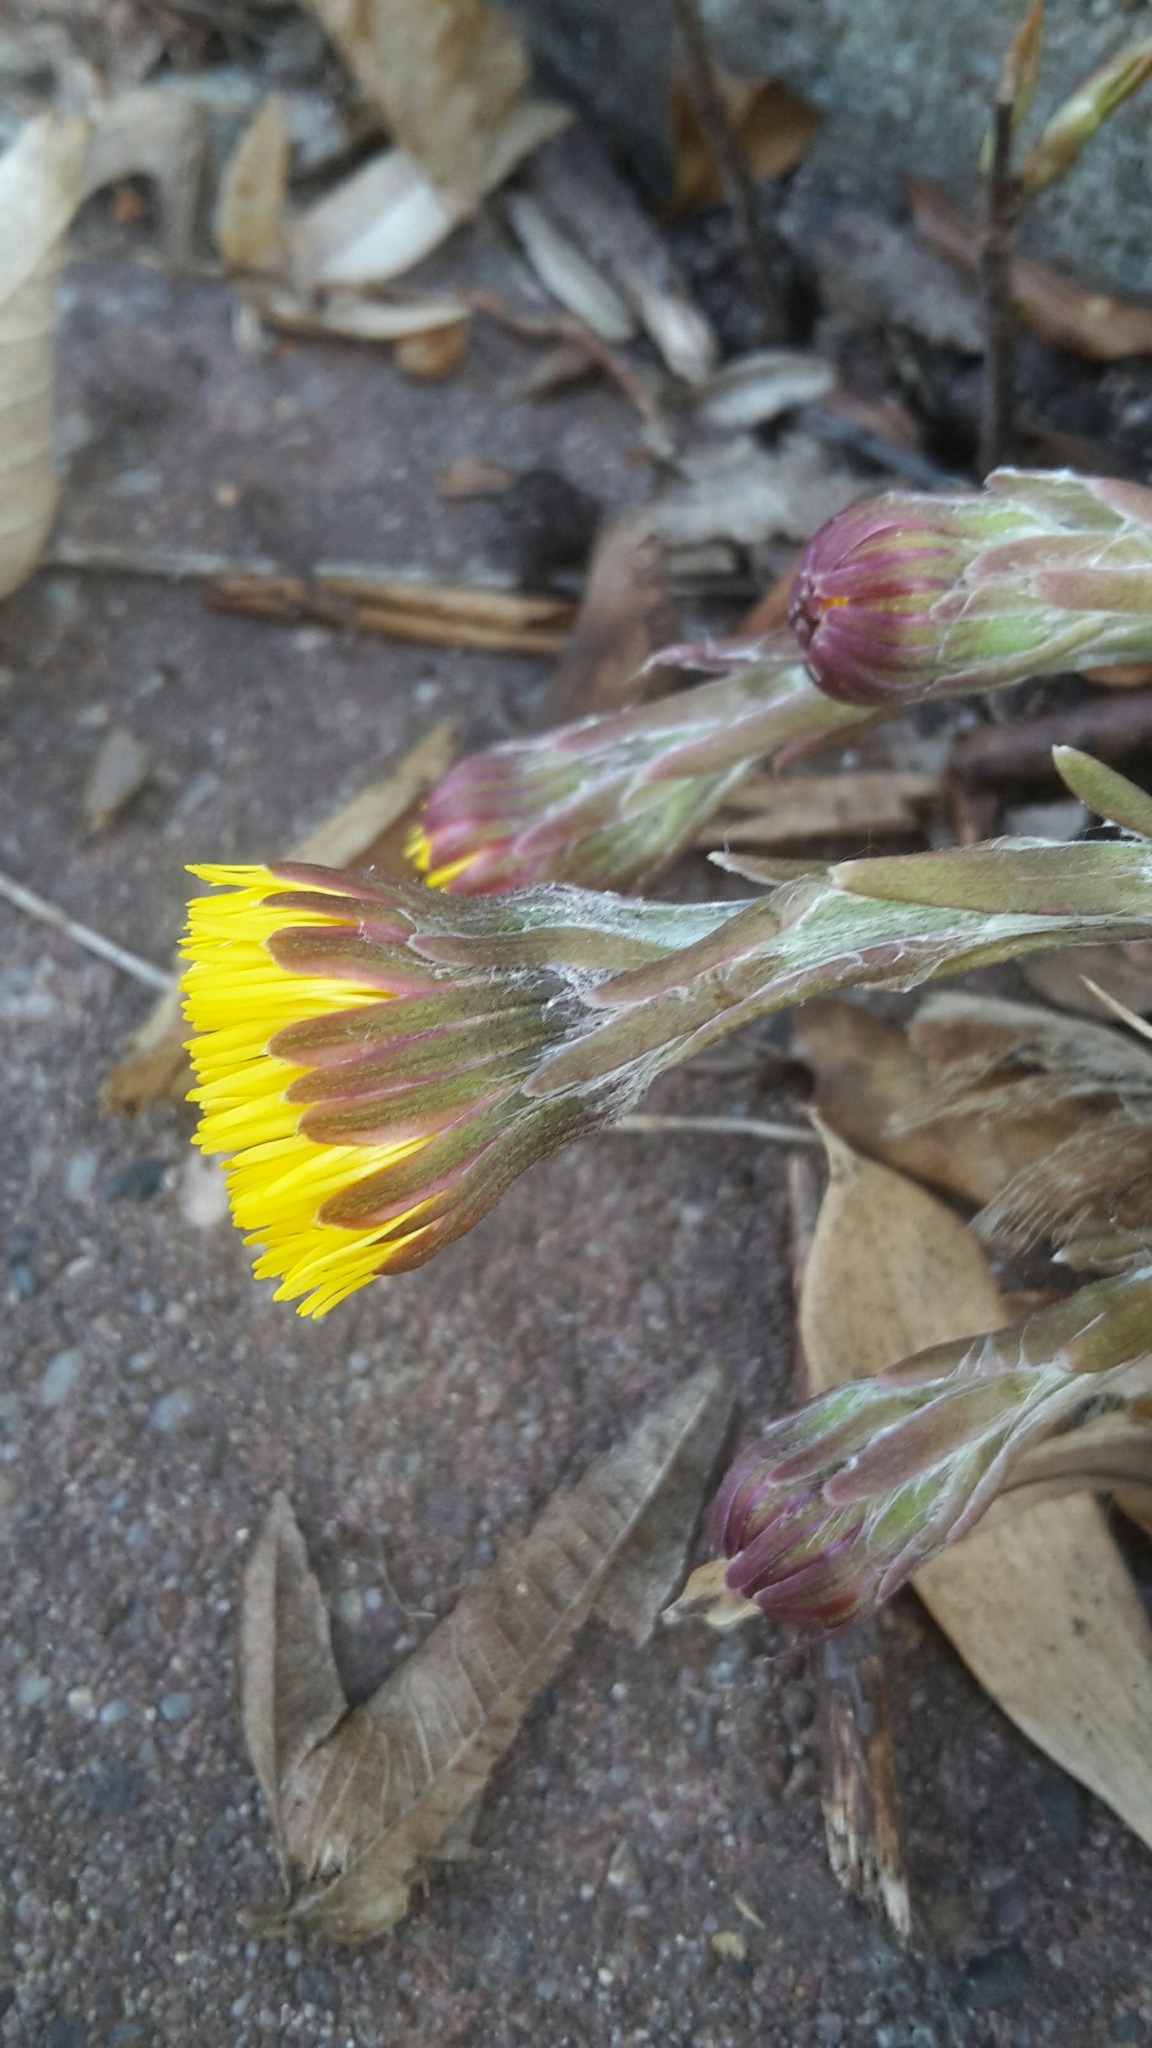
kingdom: Plantae
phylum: Tracheophyta
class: Magnoliopsida
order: Asterales
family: Asteraceae
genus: Tussilago
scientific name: Tussilago farfara
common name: Coltsfoot
